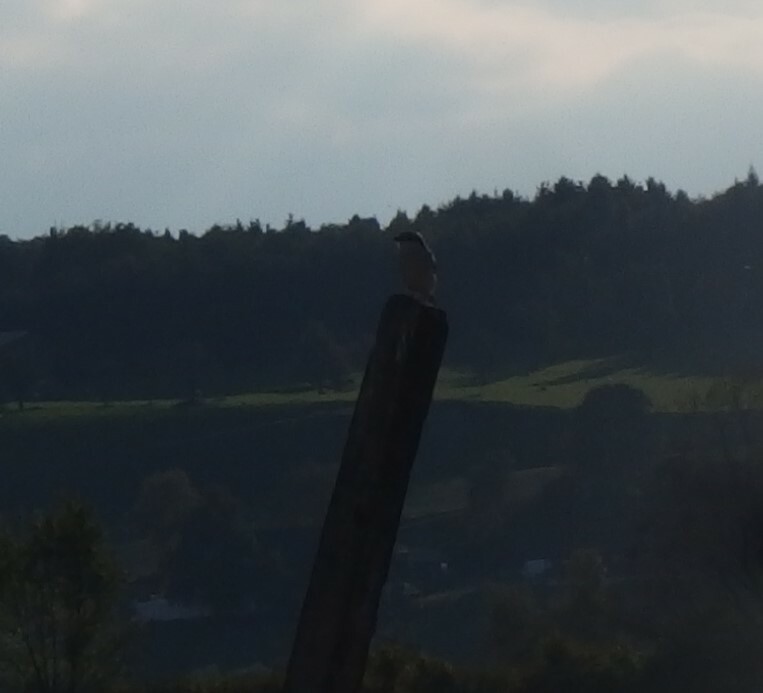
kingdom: Animalia
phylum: Chordata
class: Aves
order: Passeriformes
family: Laniidae
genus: Lanius
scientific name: Lanius excubitor
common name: Great grey shrike
